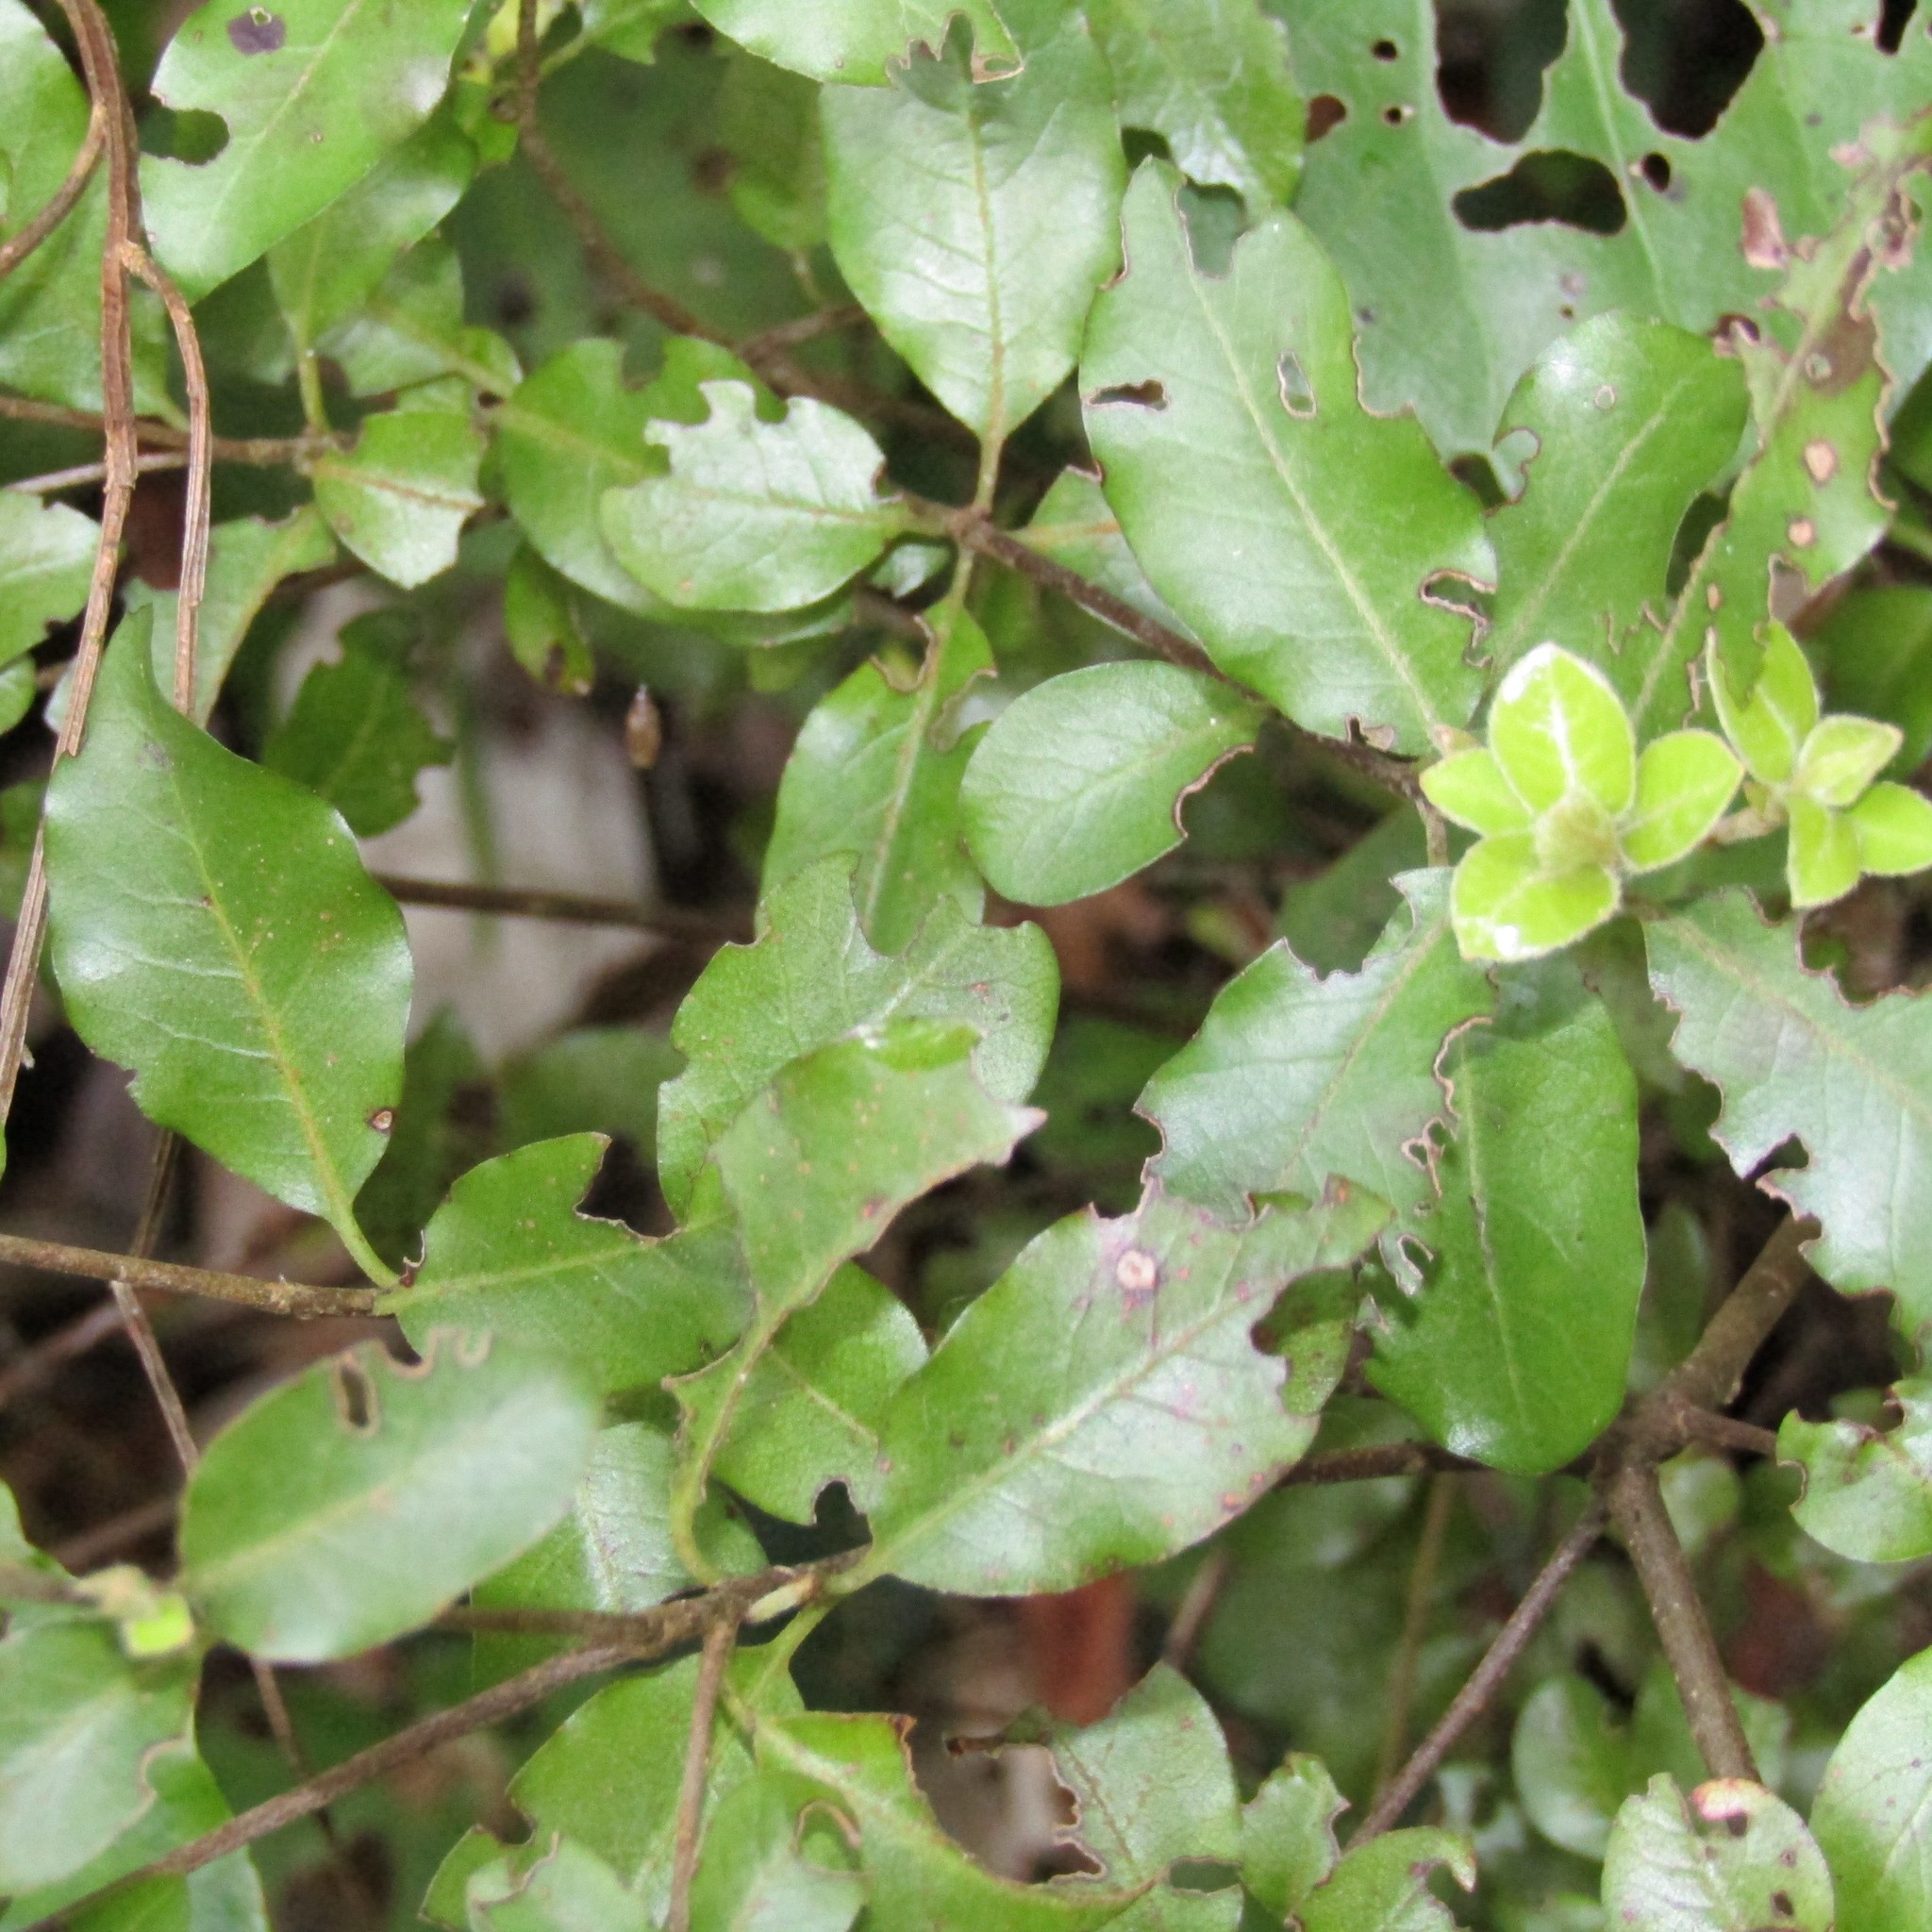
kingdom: Plantae
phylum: Tracheophyta
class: Magnoliopsida
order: Apiales
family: Pittosporaceae
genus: Pittosporum
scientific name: Pittosporum tenuifolium
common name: Kohuhu
